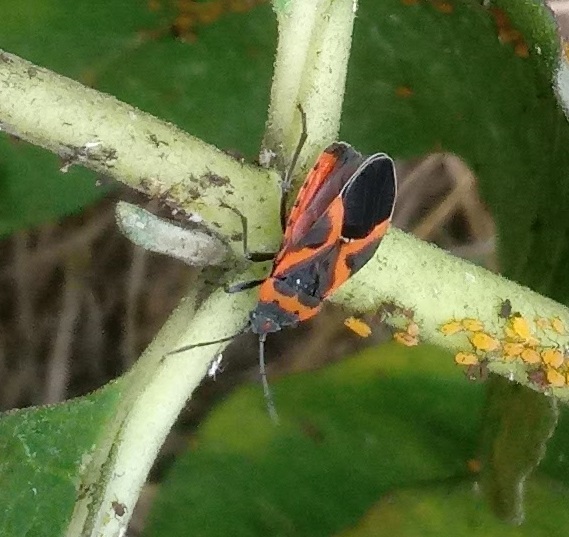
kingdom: Animalia
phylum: Arthropoda
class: Insecta
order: Hemiptera
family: Lygaeidae
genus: Lygaeus
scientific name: Lygaeus kalmii
